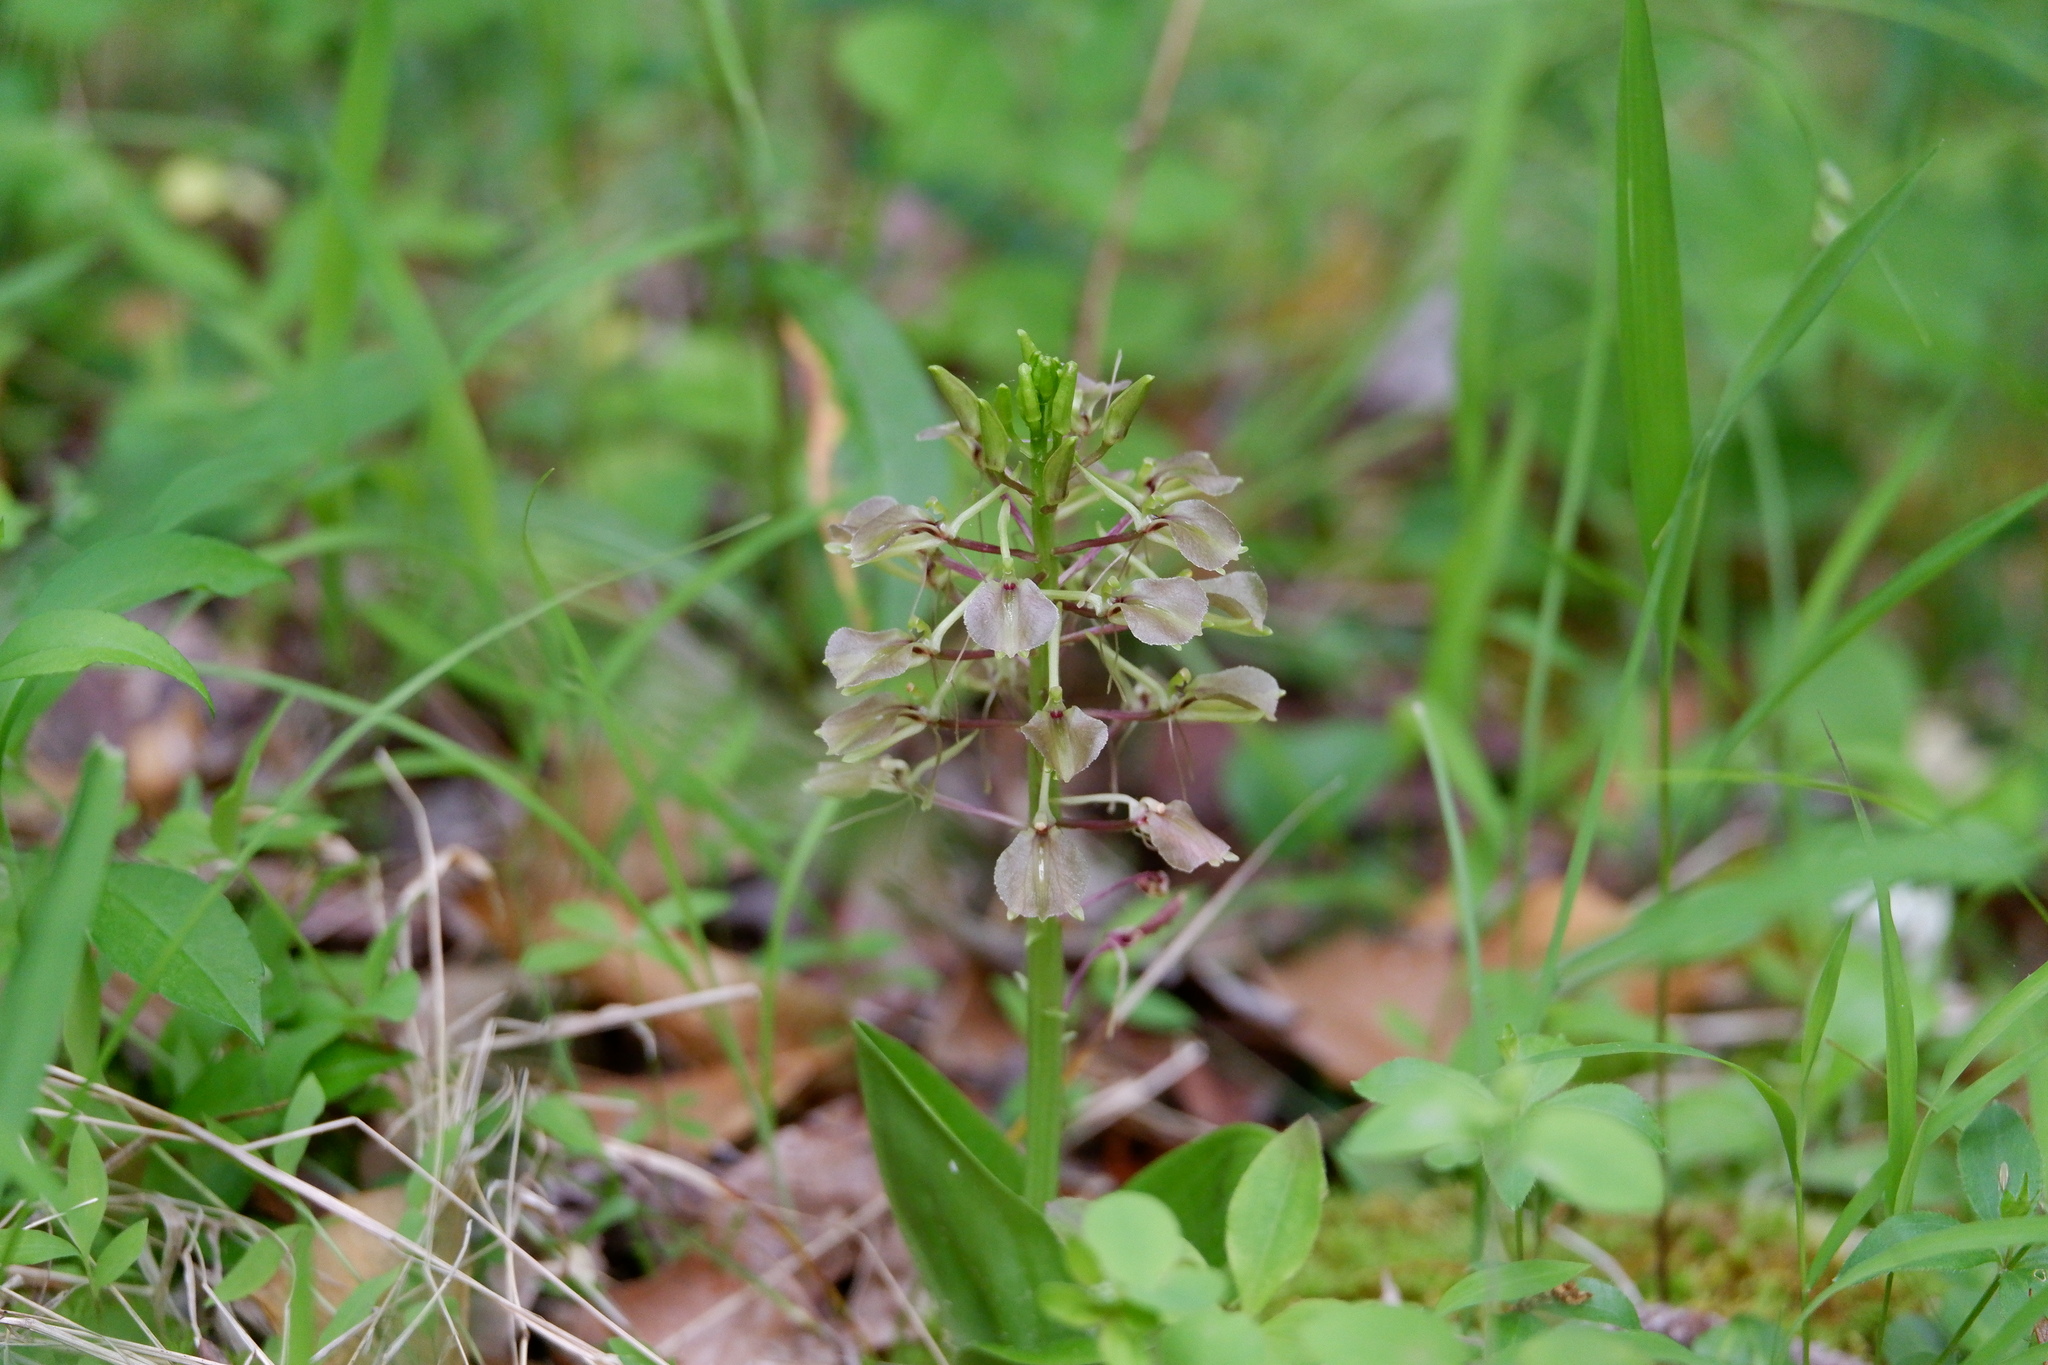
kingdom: Plantae
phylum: Tracheophyta
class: Liliopsida
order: Asparagales
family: Orchidaceae
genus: Liparis
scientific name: Liparis liliifolia
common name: Brown wide-lip orchid
